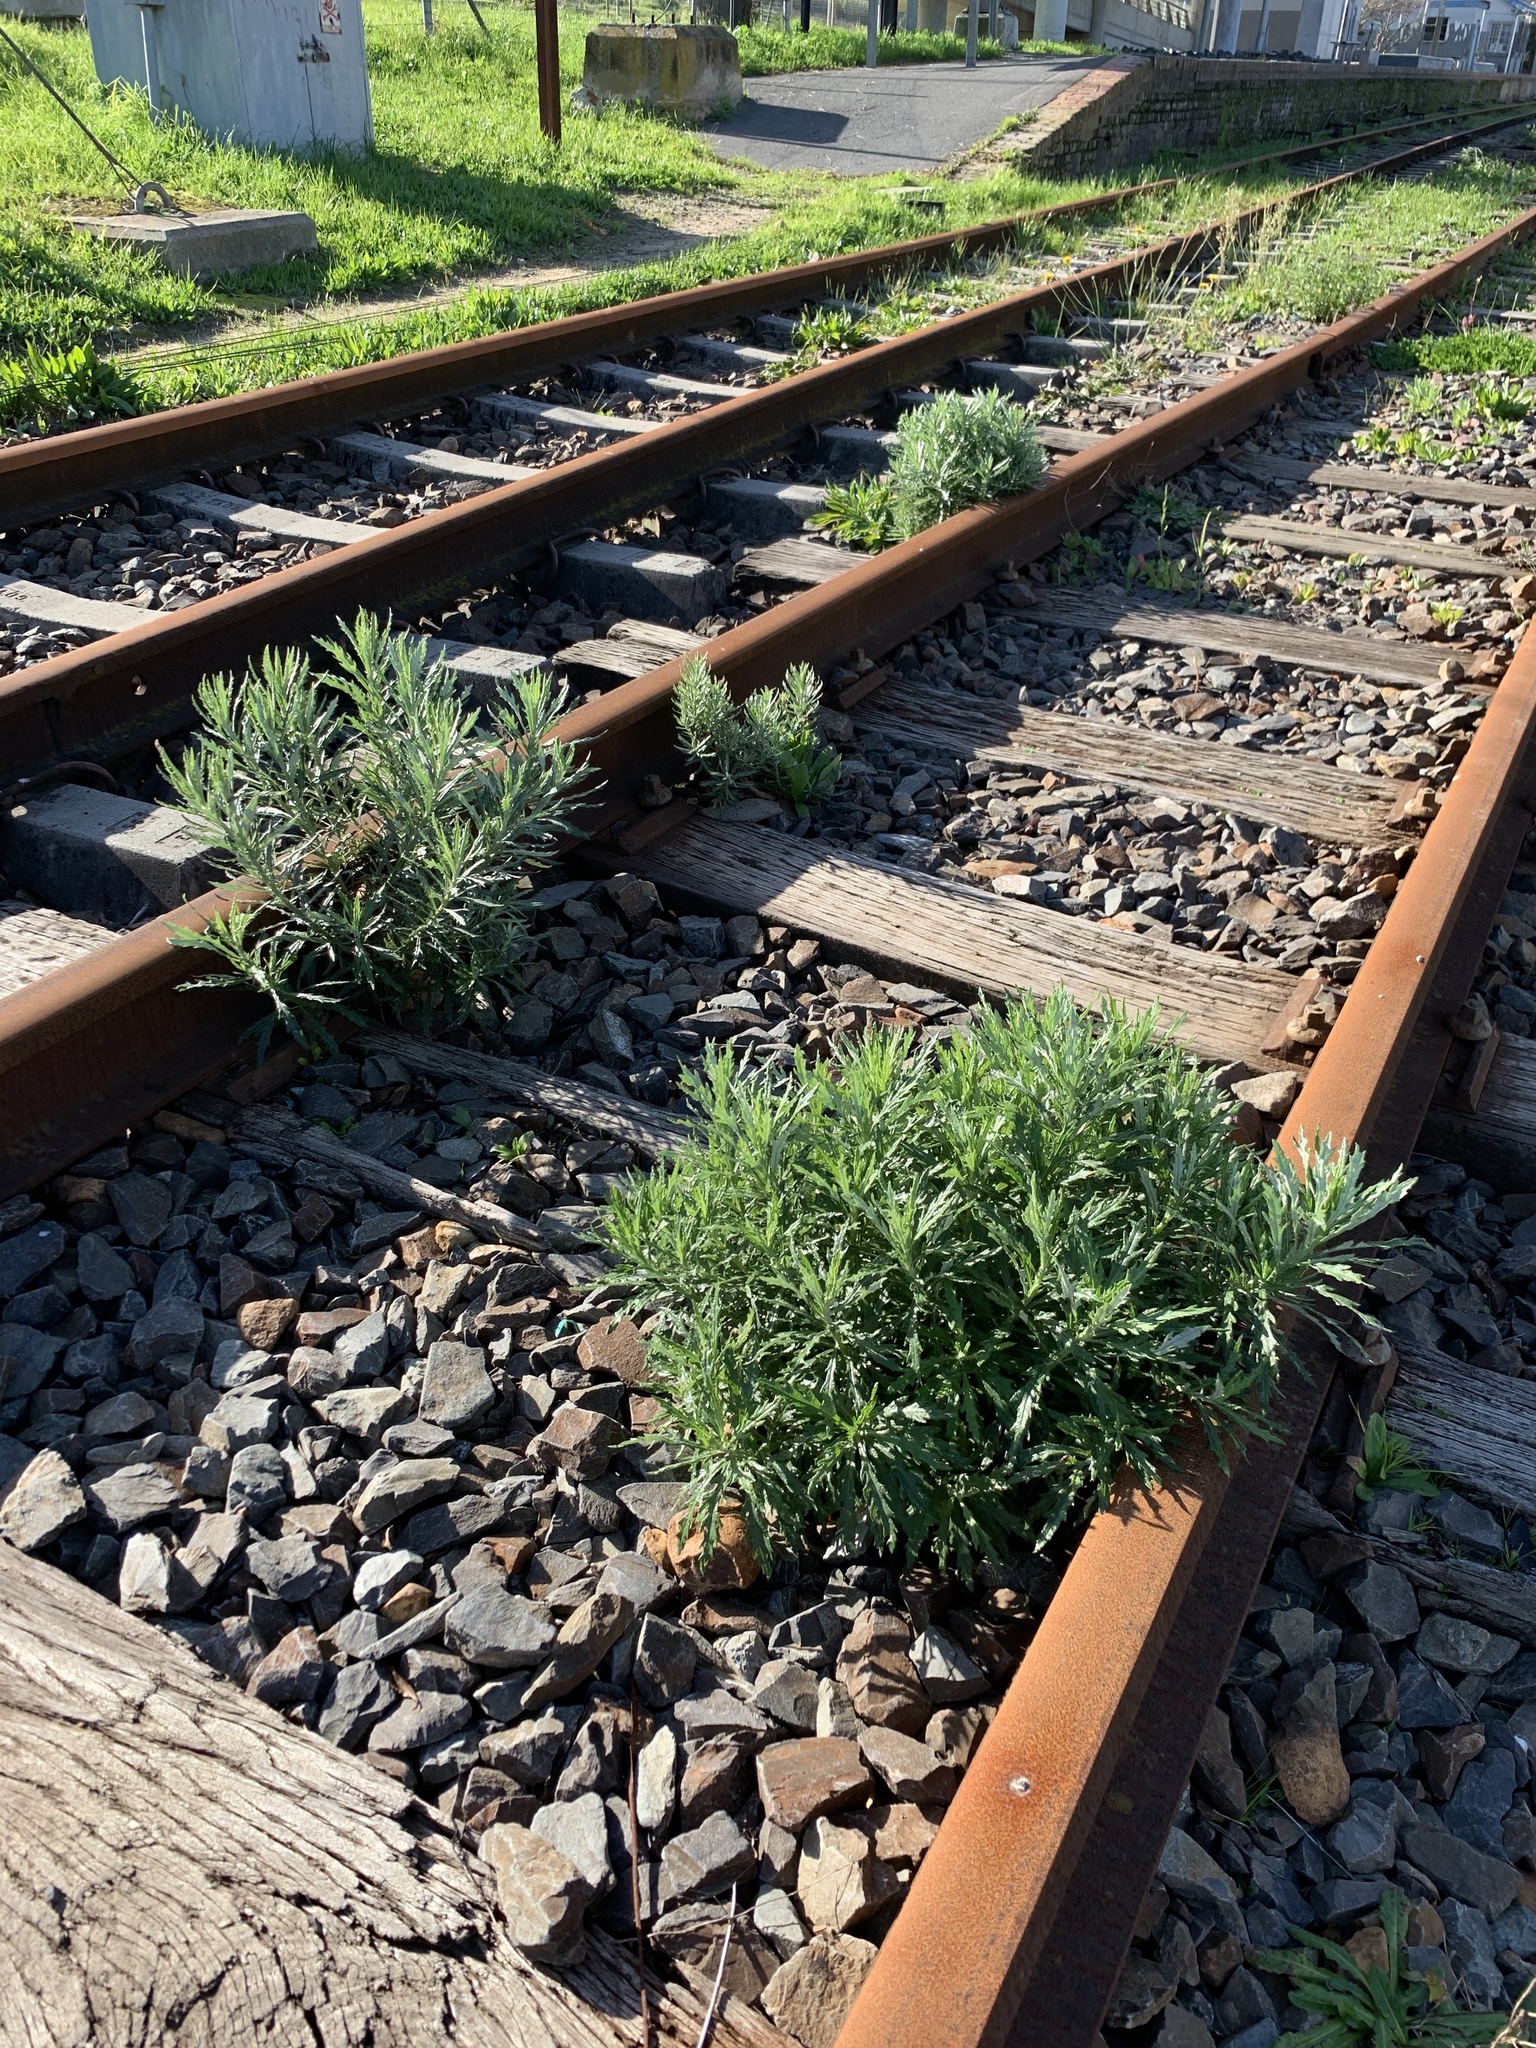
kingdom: Plantae
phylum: Tracheophyta
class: Magnoliopsida
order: Asterales
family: Asteraceae
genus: Senecio
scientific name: Senecio pterophorus
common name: Shoddy ragwort
